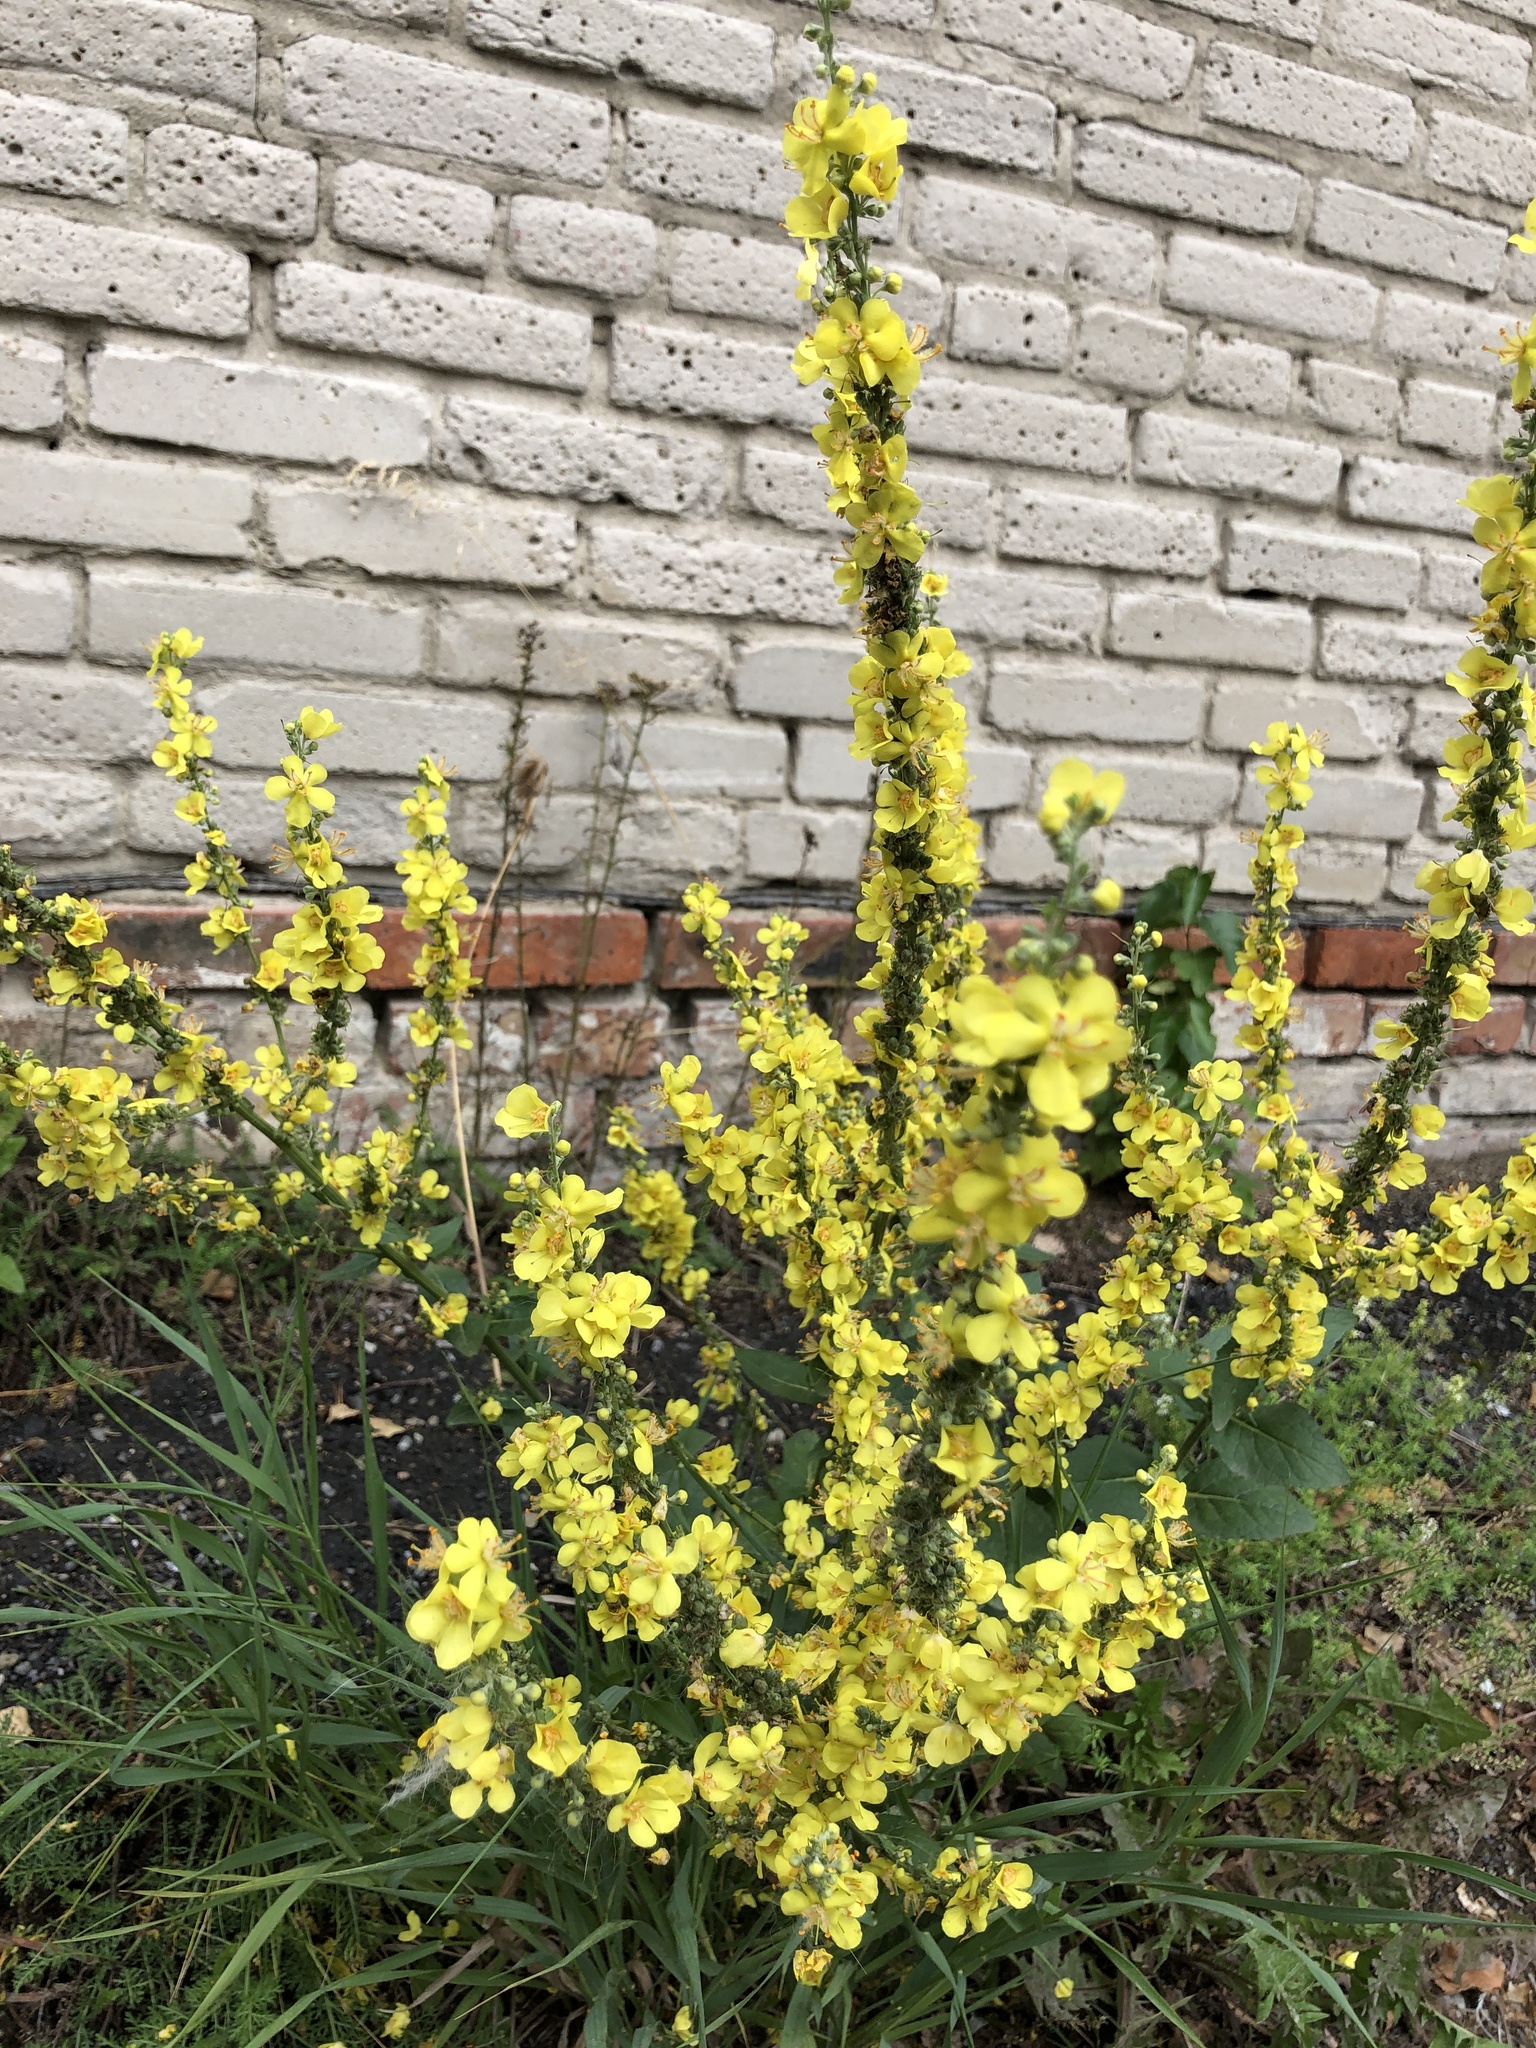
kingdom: Plantae
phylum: Tracheophyta
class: Magnoliopsida
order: Lamiales
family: Scrophulariaceae
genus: Verbascum
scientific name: Verbascum lychnitis
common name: White mullein
